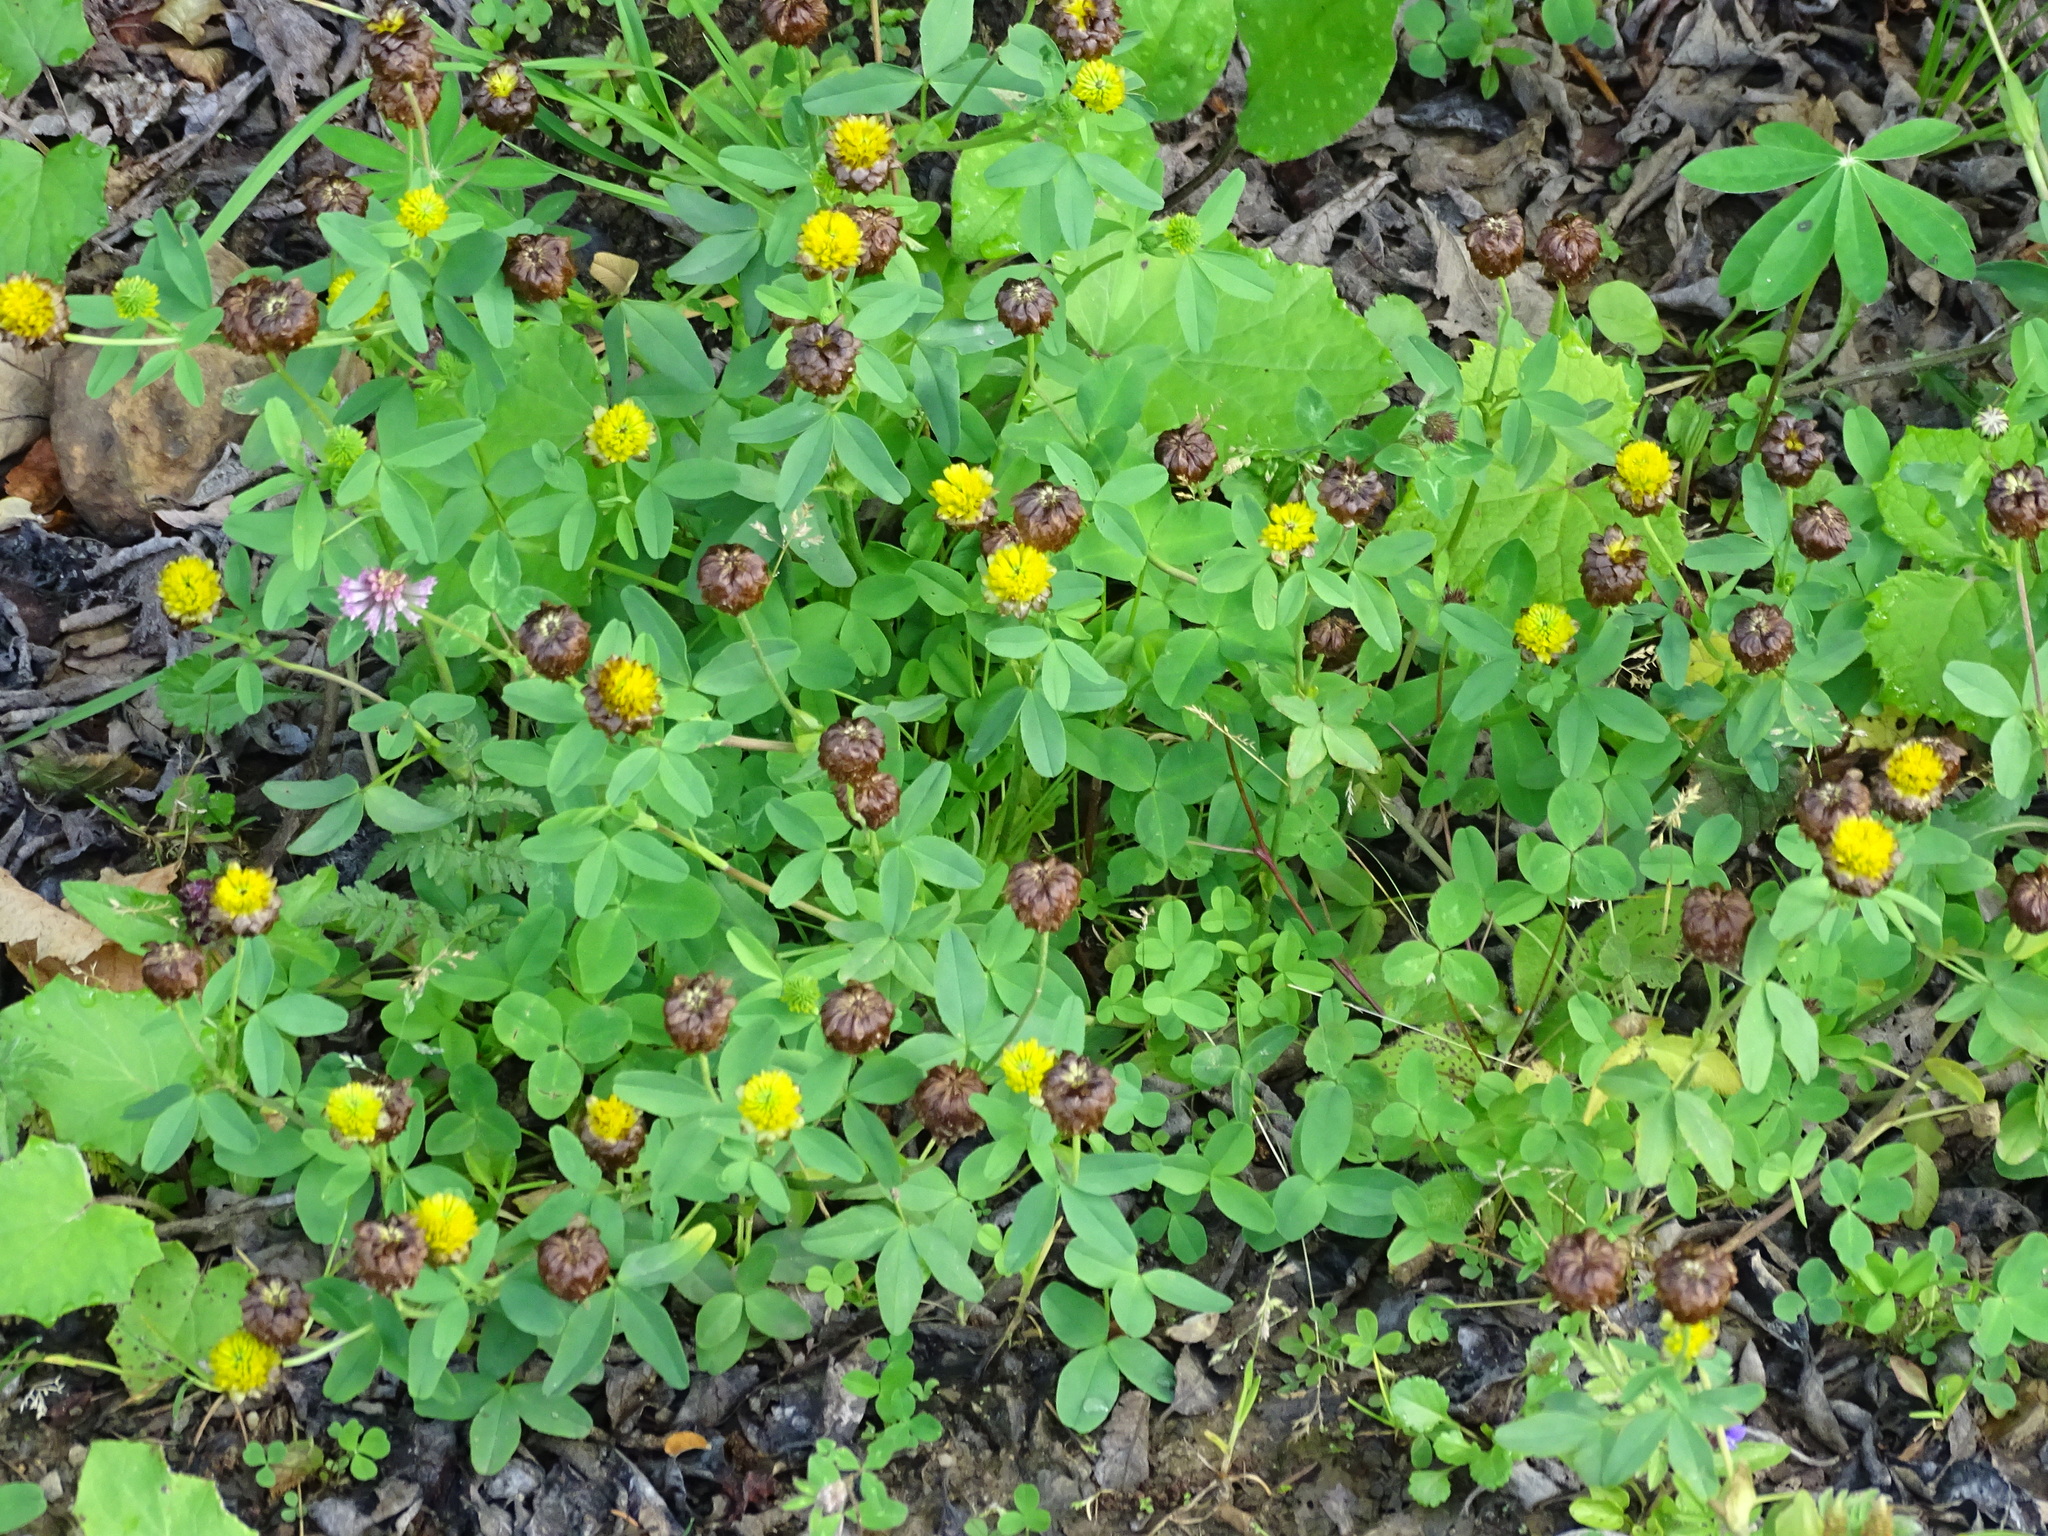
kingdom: Plantae
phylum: Tracheophyta
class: Magnoliopsida
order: Fabales
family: Fabaceae
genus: Trifolium
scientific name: Trifolium badium
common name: Brown clover
